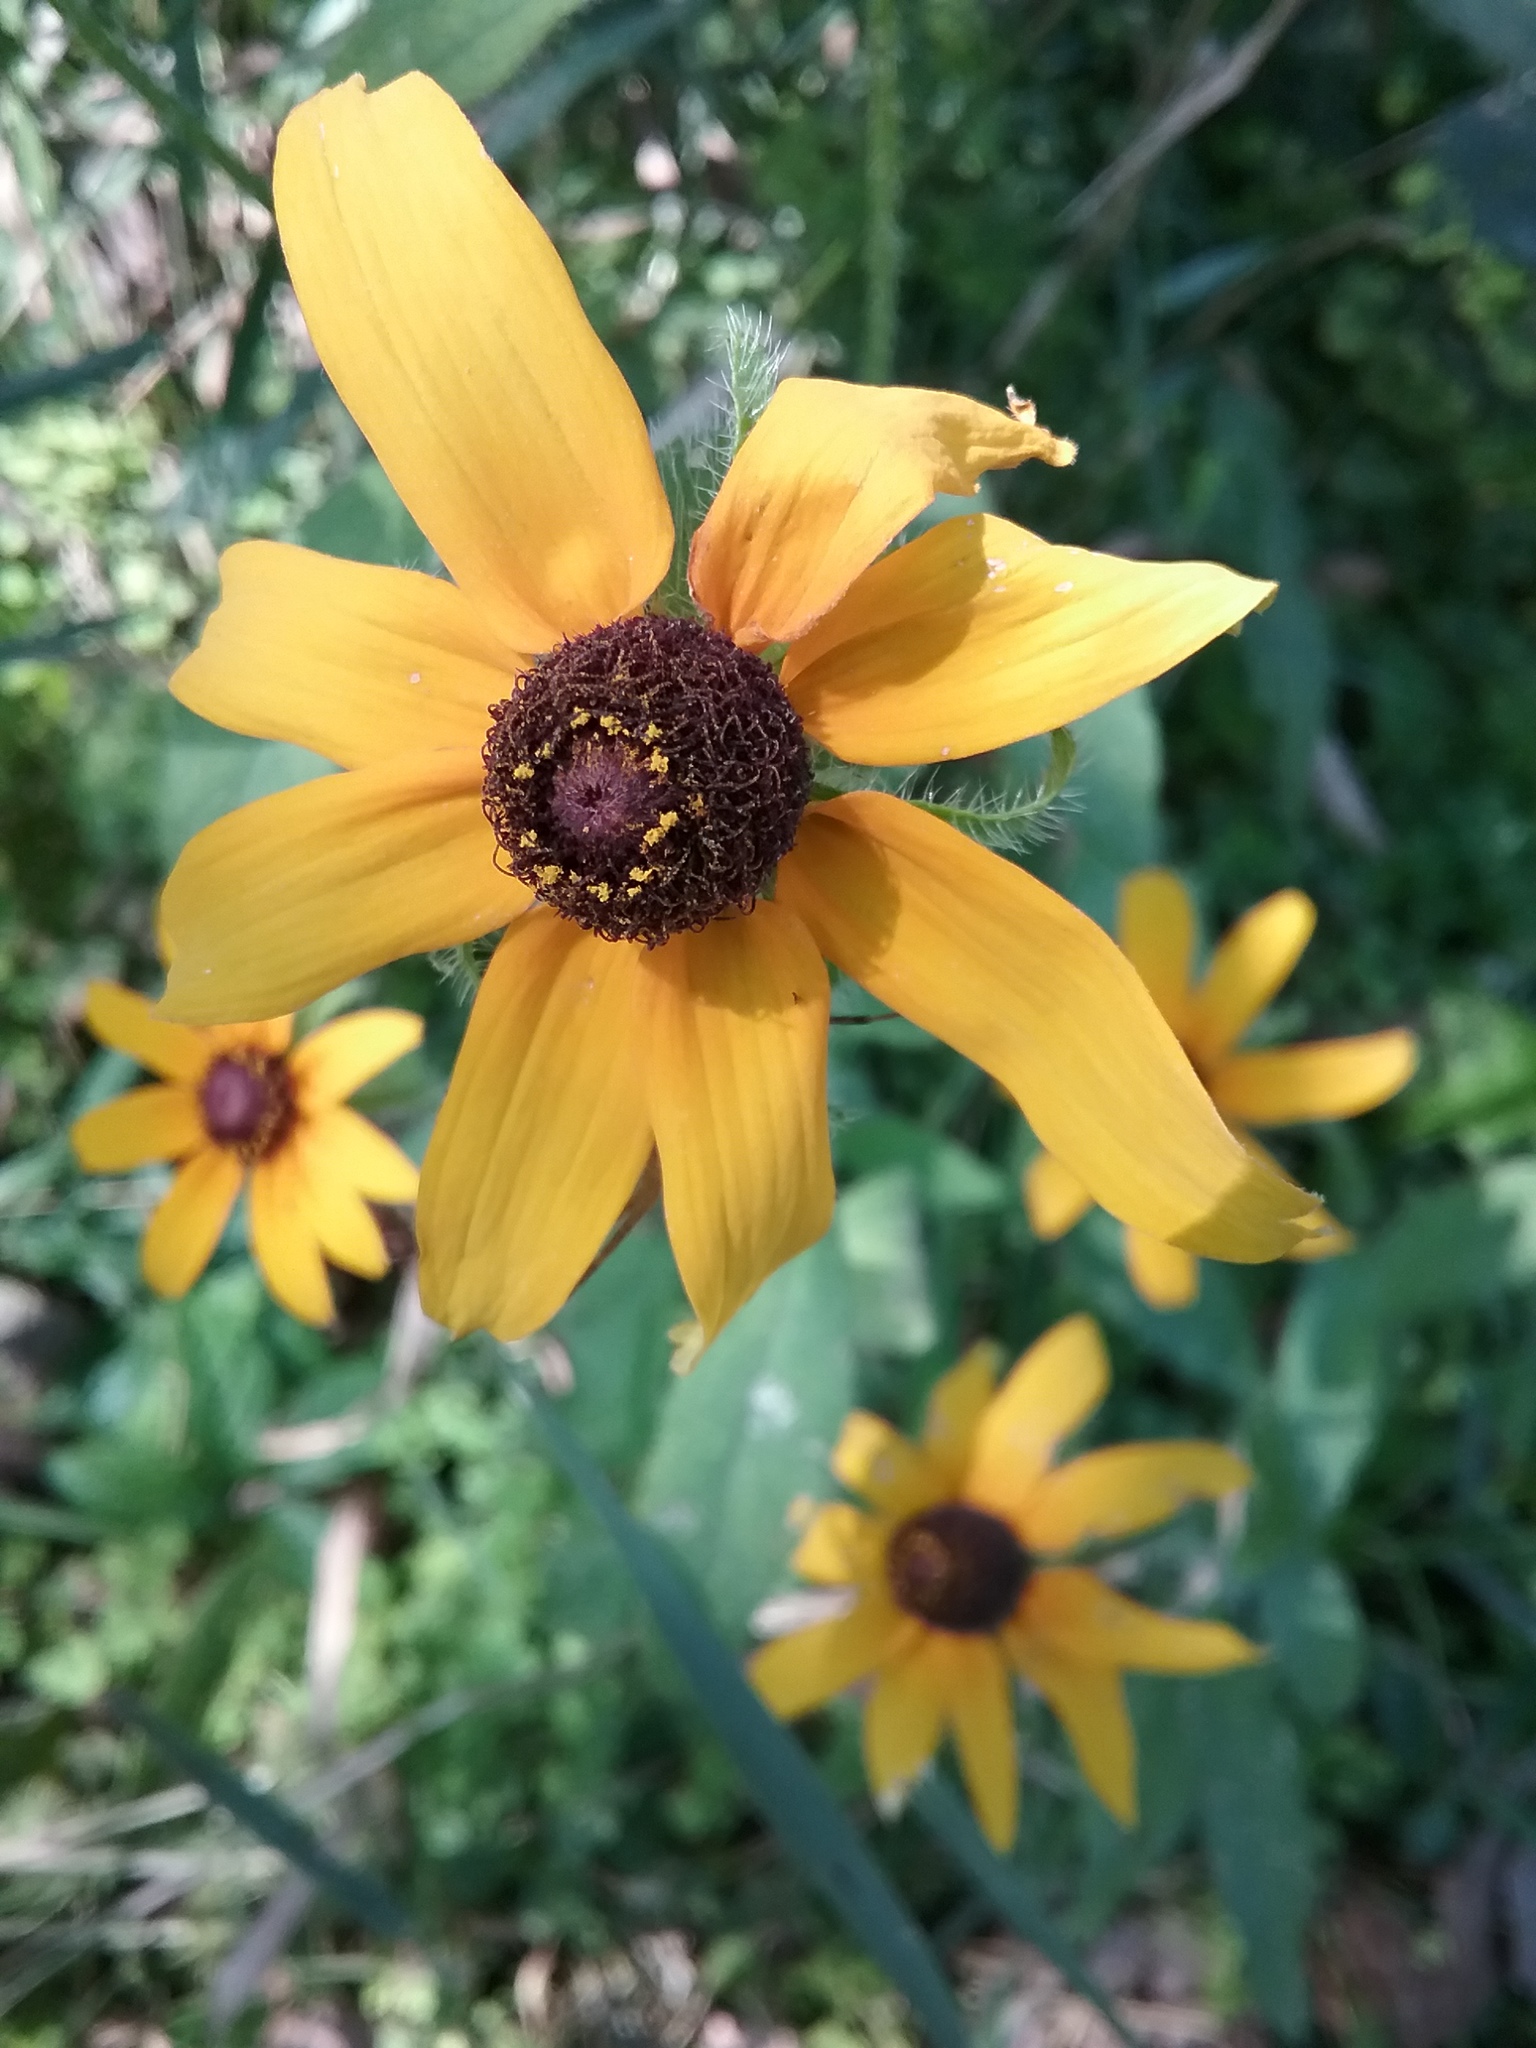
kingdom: Plantae
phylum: Tracheophyta
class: Magnoliopsida
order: Asterales
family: Asteraceae
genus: Rudbeckia
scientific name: Rudbeckia hirta
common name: Black-eyed-susan
